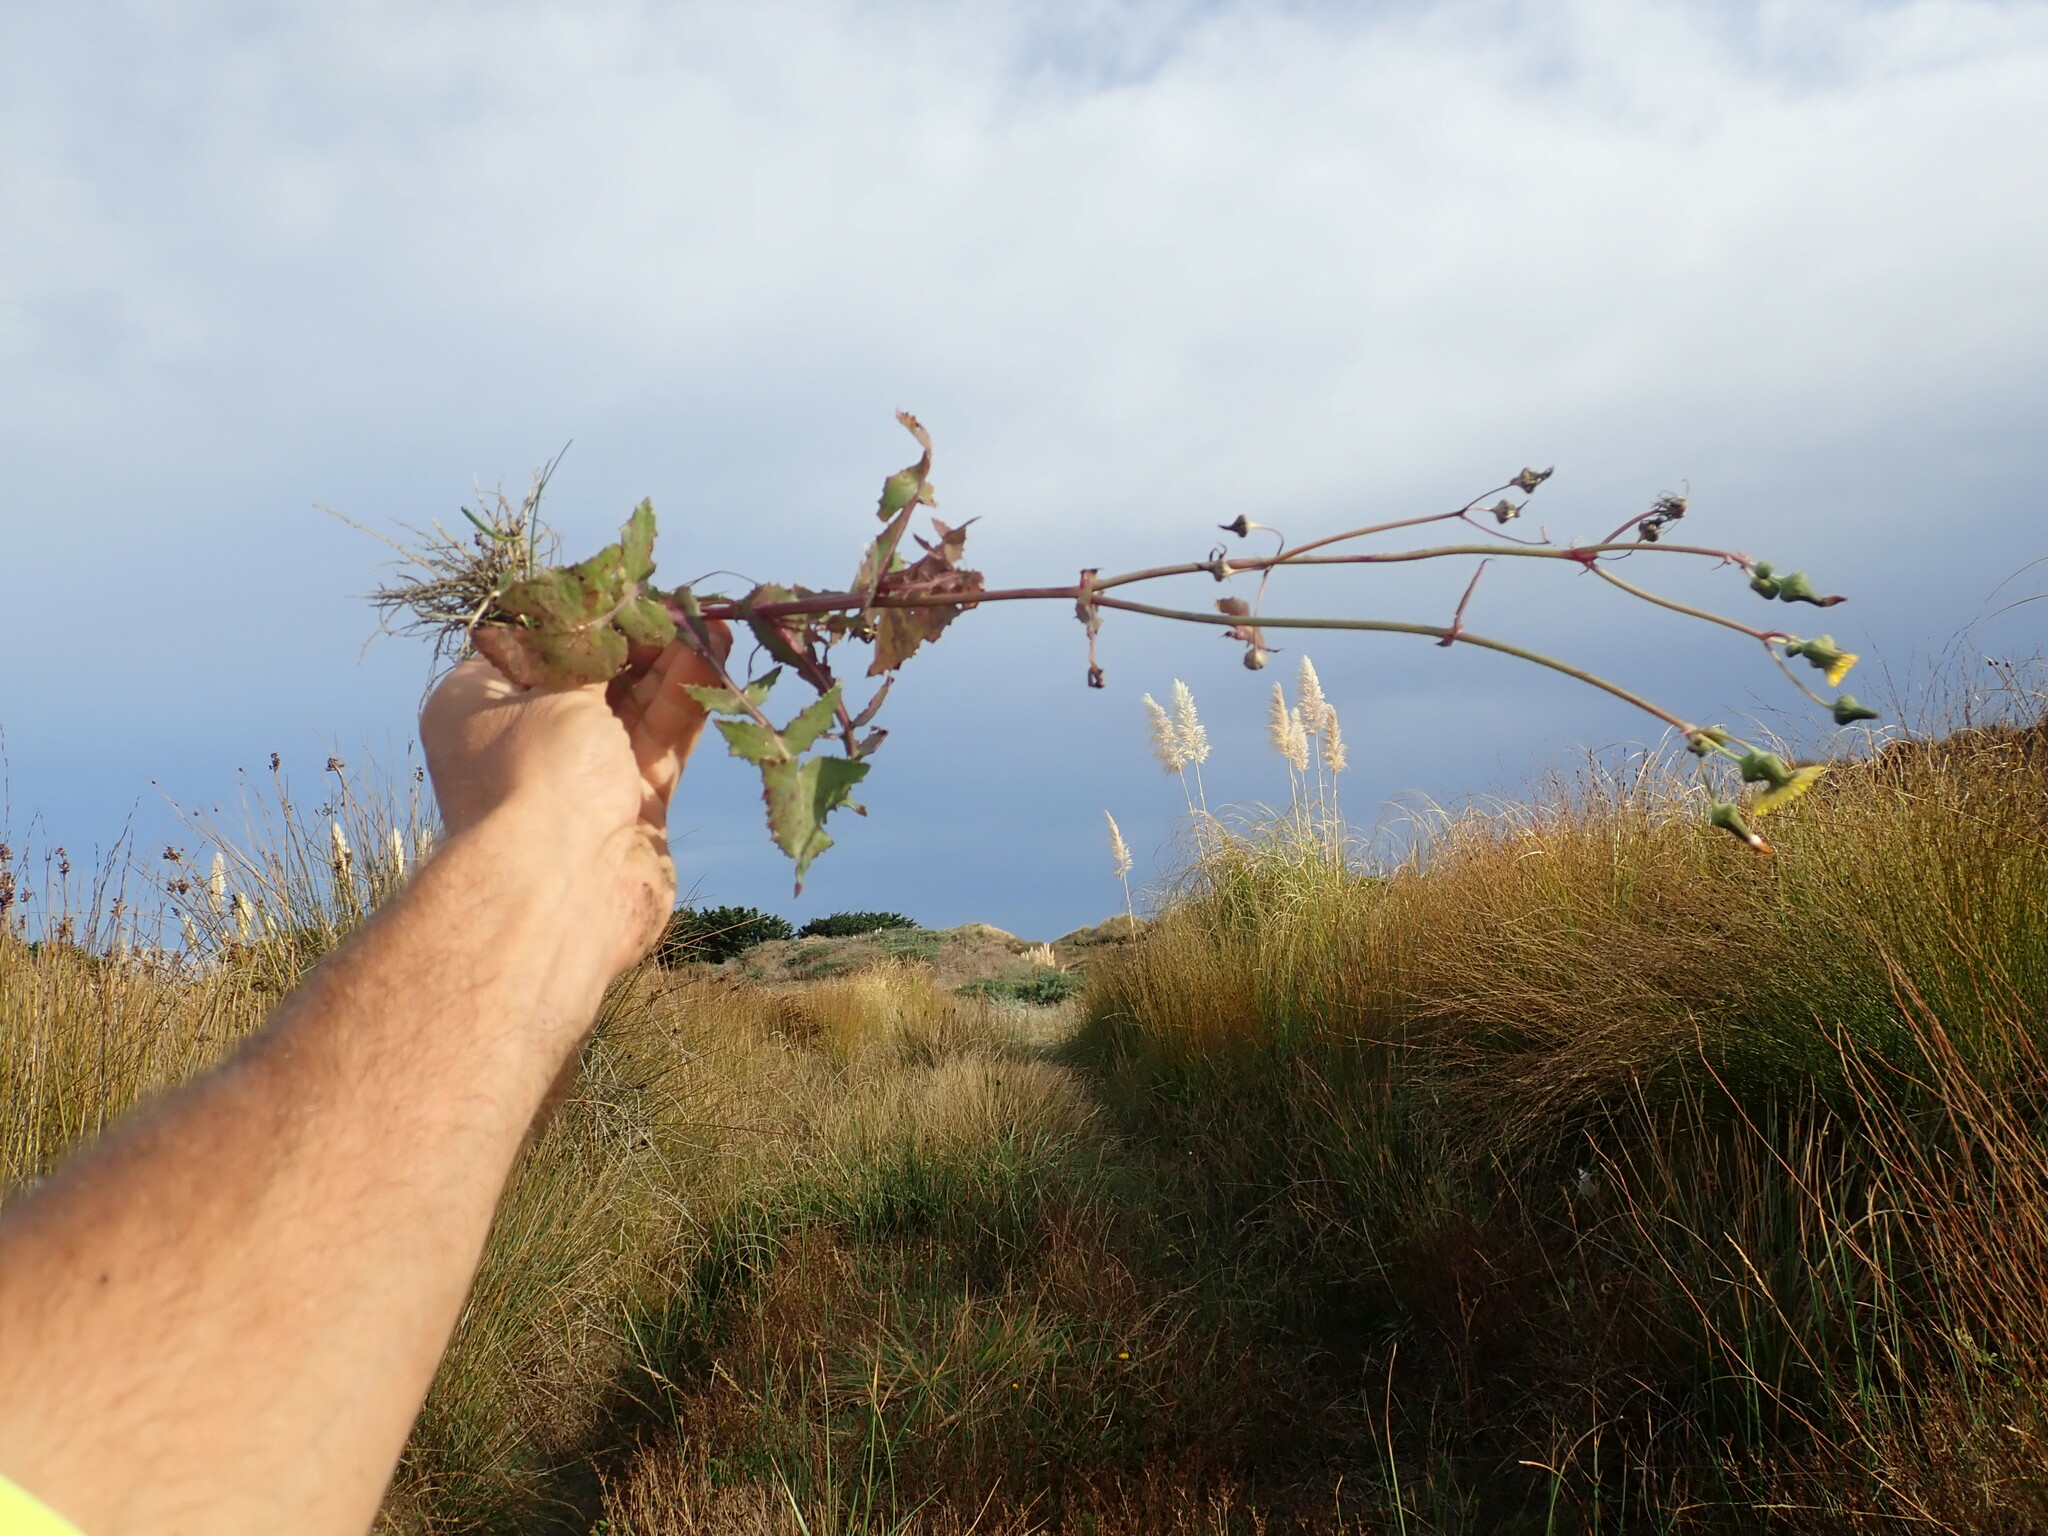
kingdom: Plantae
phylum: Tracheophyta
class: Magnoliopsida
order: Asterales
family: Asteraceae
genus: Sonchus
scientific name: Sonchus oleraceus
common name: Common sowthistle
